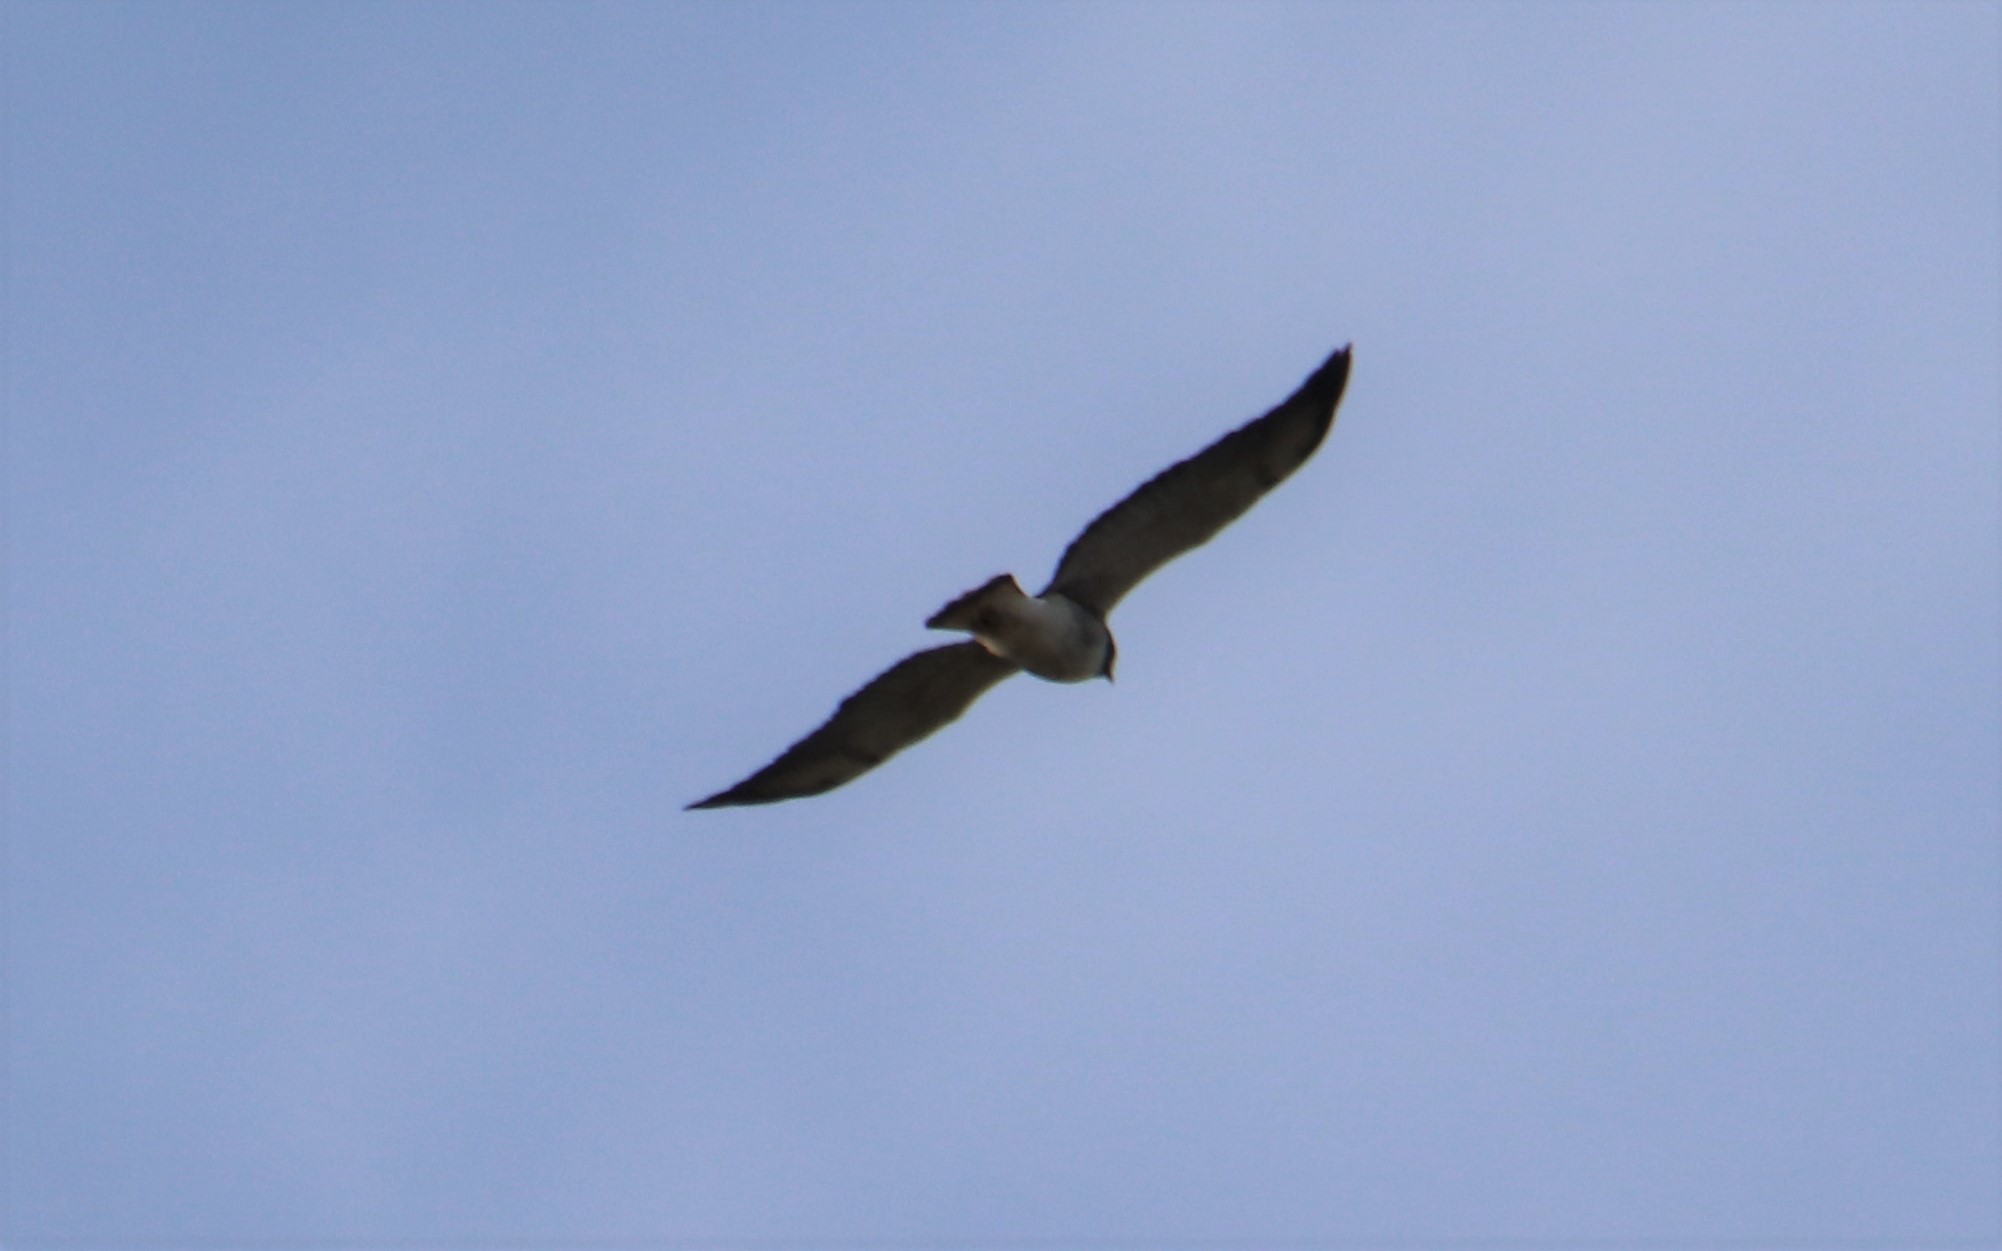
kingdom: Animalia
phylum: Chordata
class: Aves
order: Accipitriformes
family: Accipitridae
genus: Buteo
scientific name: Buteo albicaudatus
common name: White-tailed hawk
